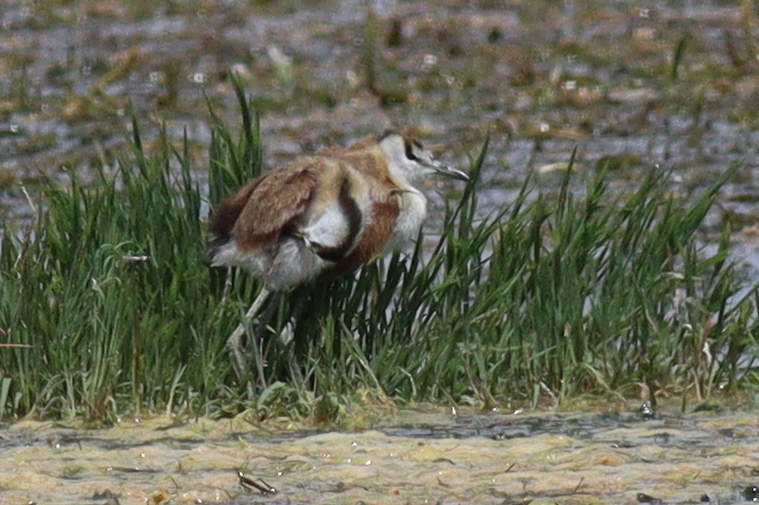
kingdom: Animalia
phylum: Chordata
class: Aves
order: Charadriiformes
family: Jacanidae
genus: Actophilornis
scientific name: Actophilornis africanus
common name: African jacana
